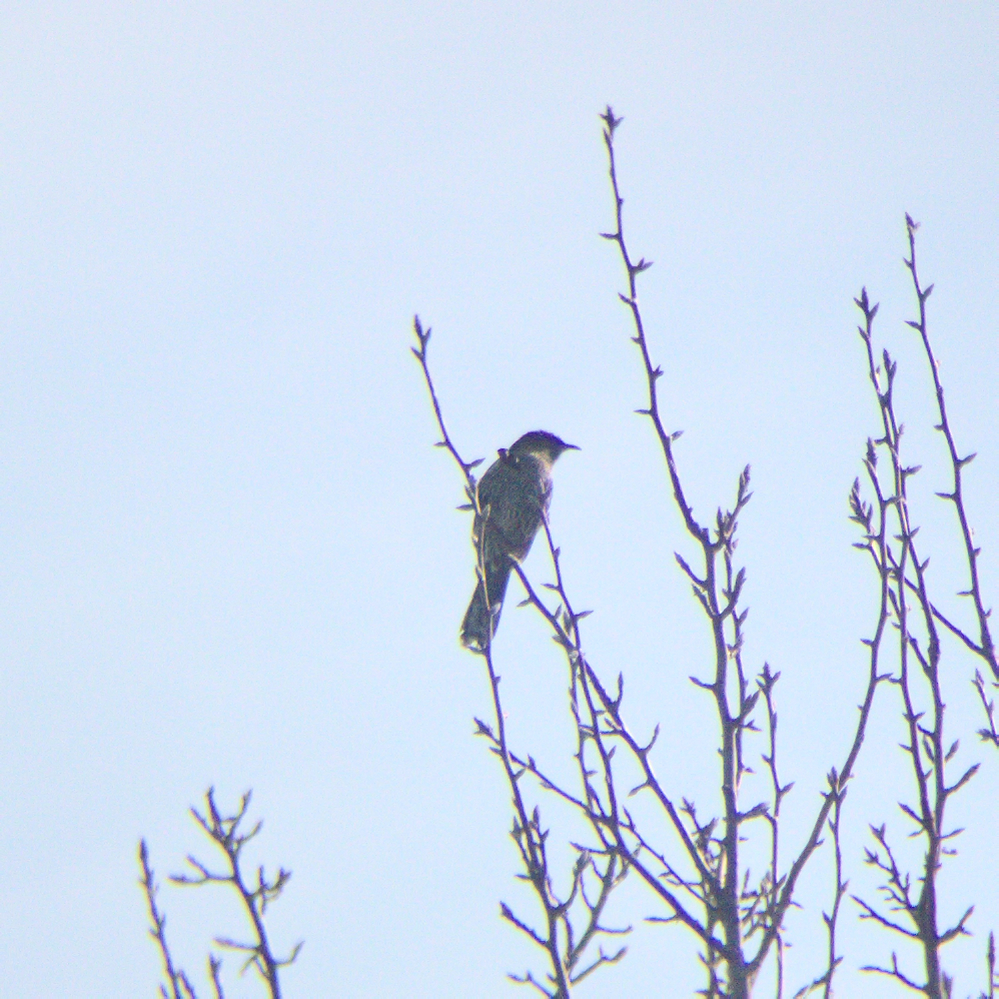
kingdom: Animalia
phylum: Chordata
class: Aves
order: Passeriformes
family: Meliphagidae
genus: Anthochaera
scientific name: Anthochaera chrysoptera
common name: Little wattlebird
